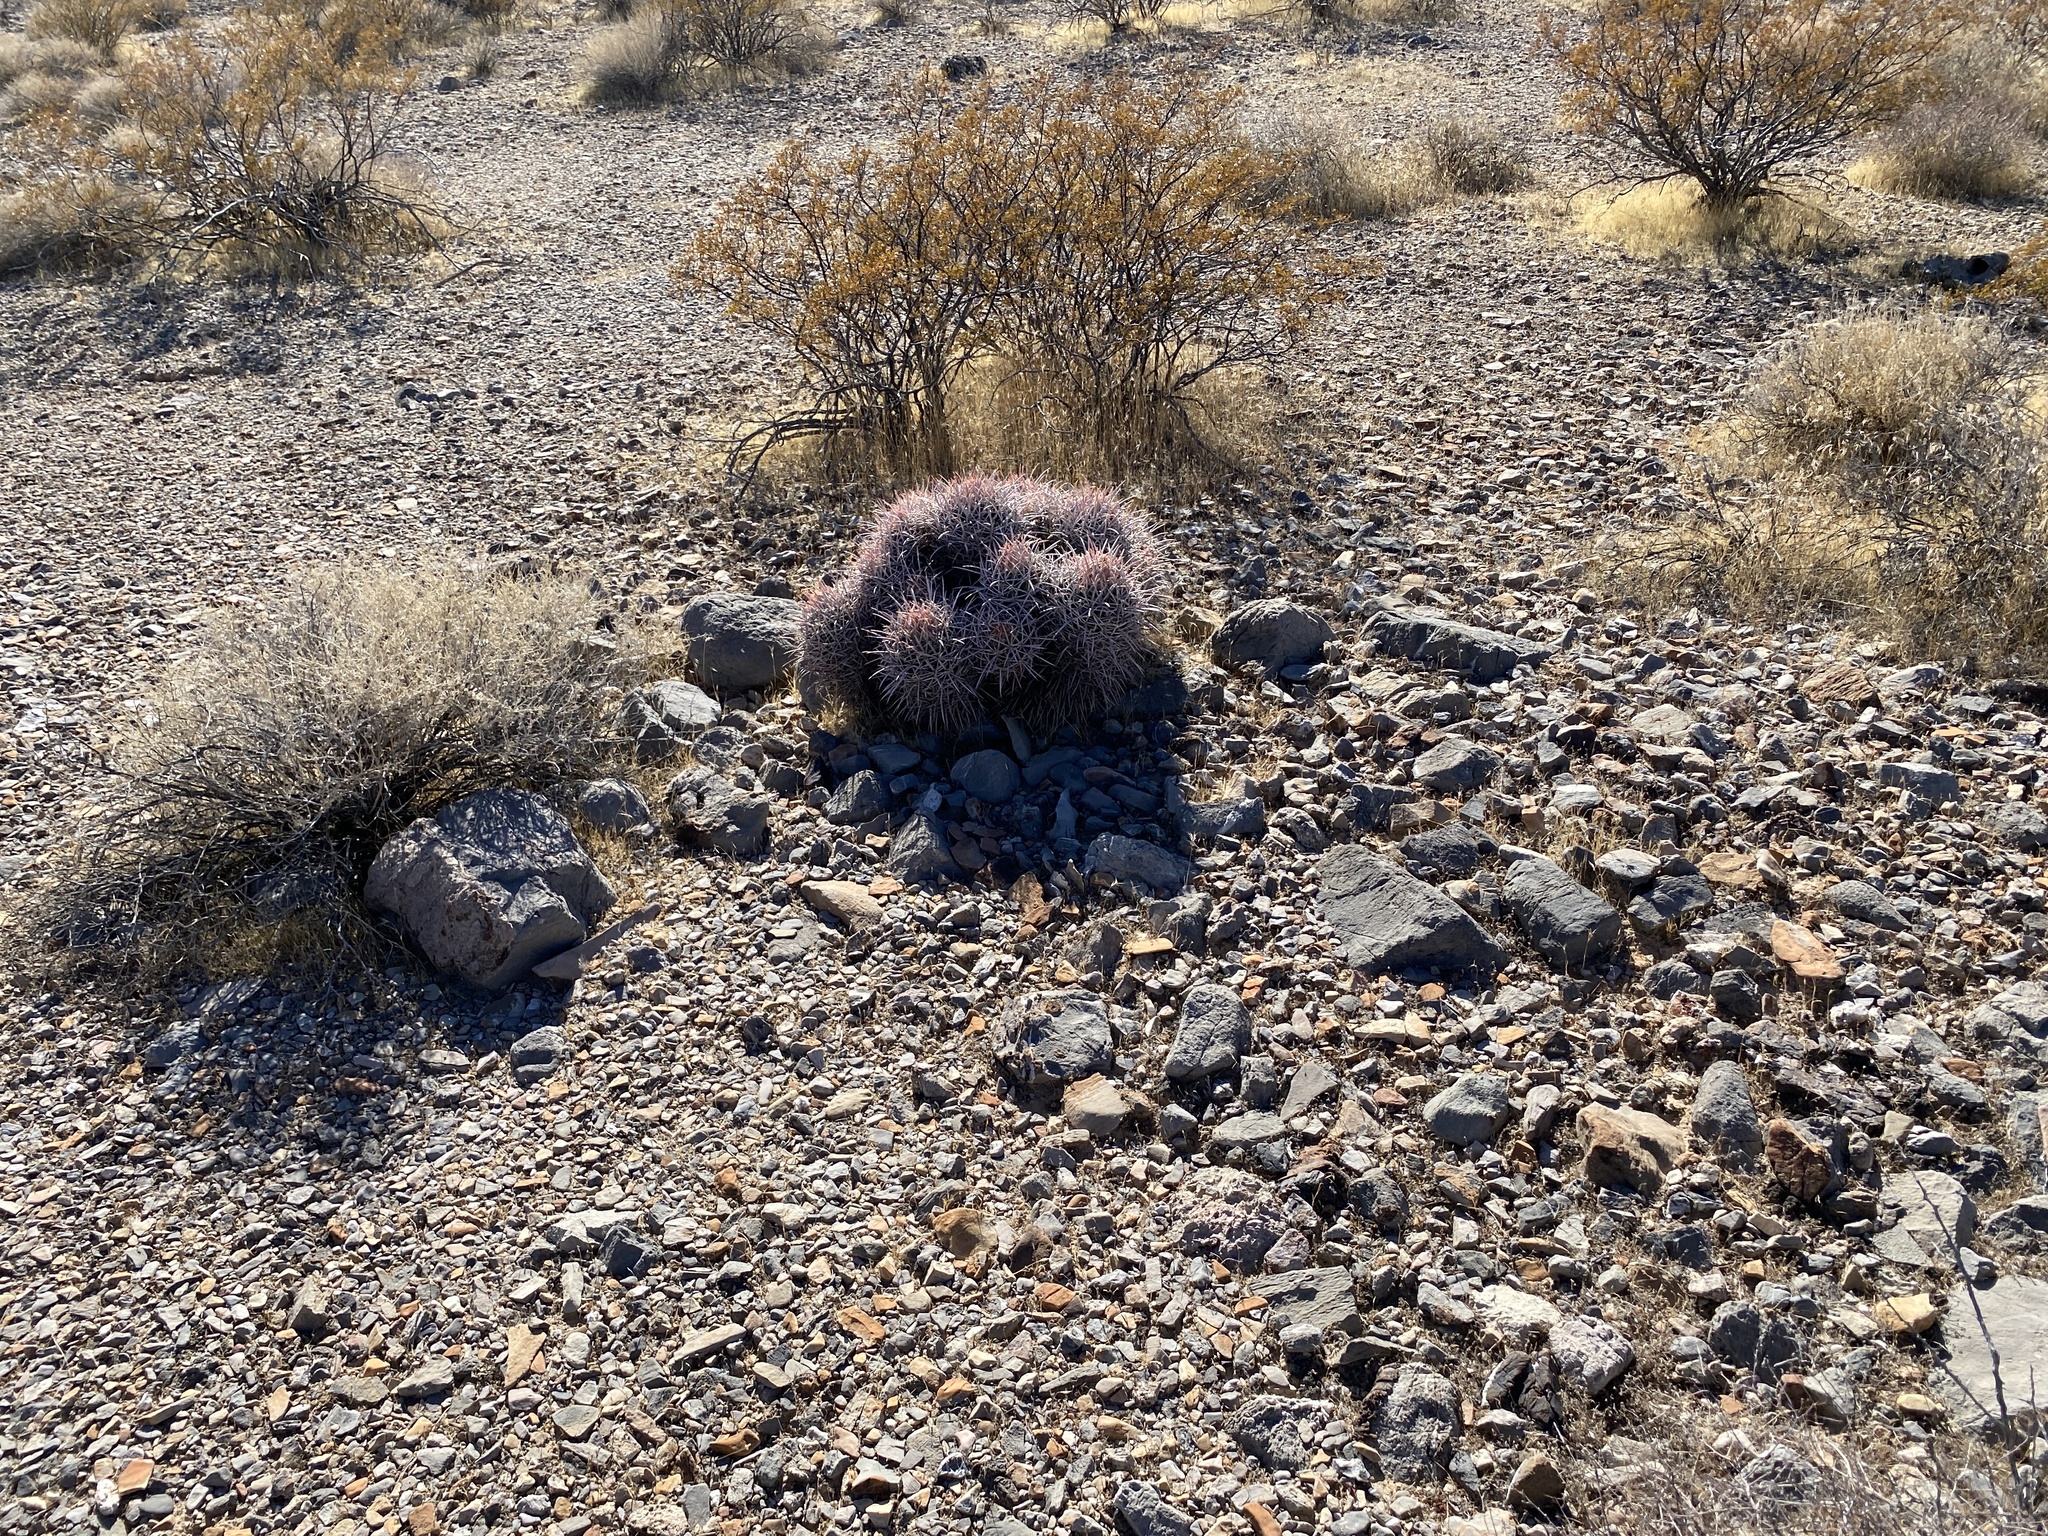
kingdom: Plantae
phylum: Tracheophyta
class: Magnoliopsida
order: Caryophyllales
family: Cactaceae
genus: Echinocactus
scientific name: Echinocactus polycephalus
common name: Cottontop cactus
